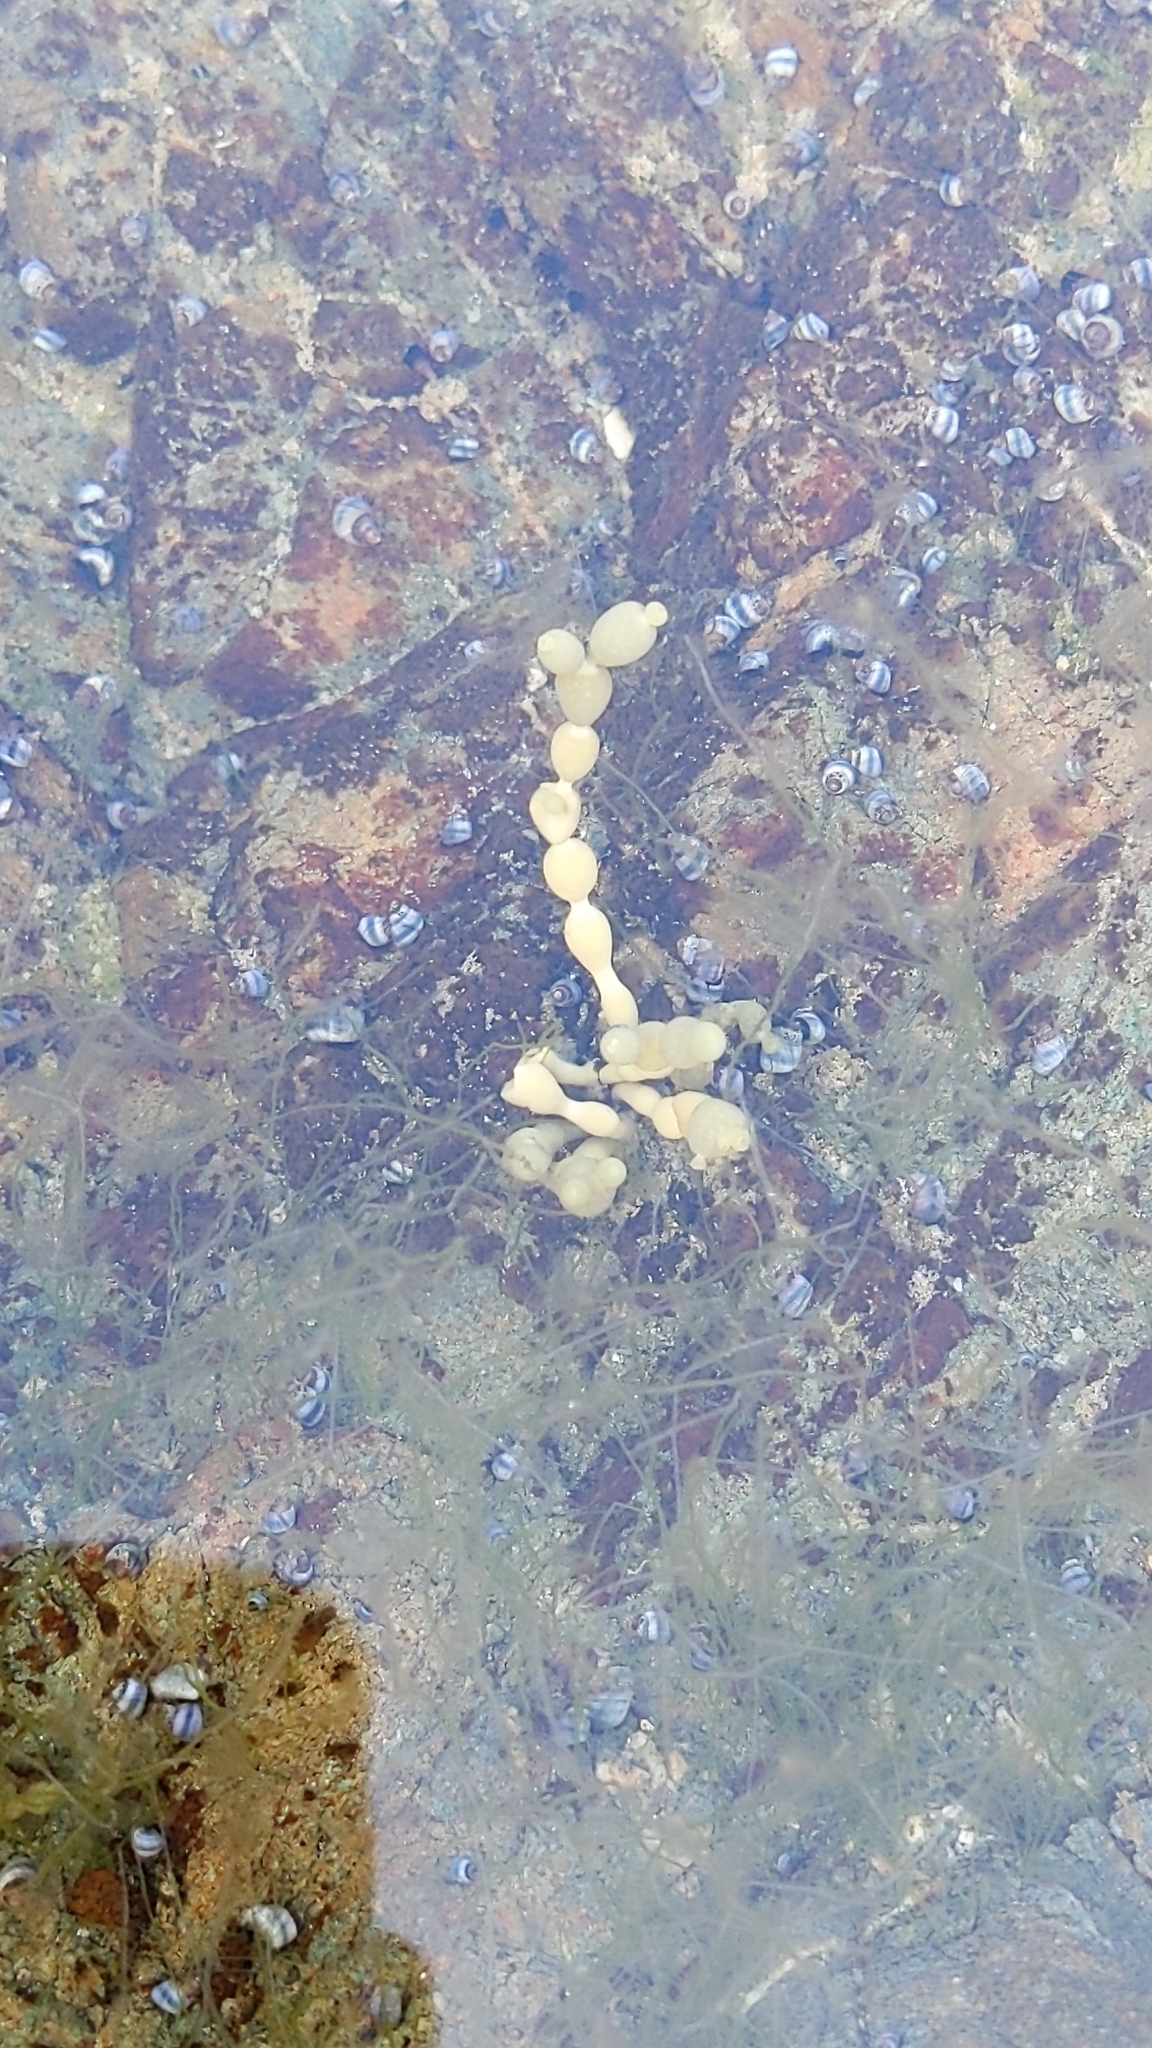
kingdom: Chromista
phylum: Ochrophyta
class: Phaeophyceae
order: Fucales
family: Hormosiraceae
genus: Hormosira
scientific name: Hormosira banksii
